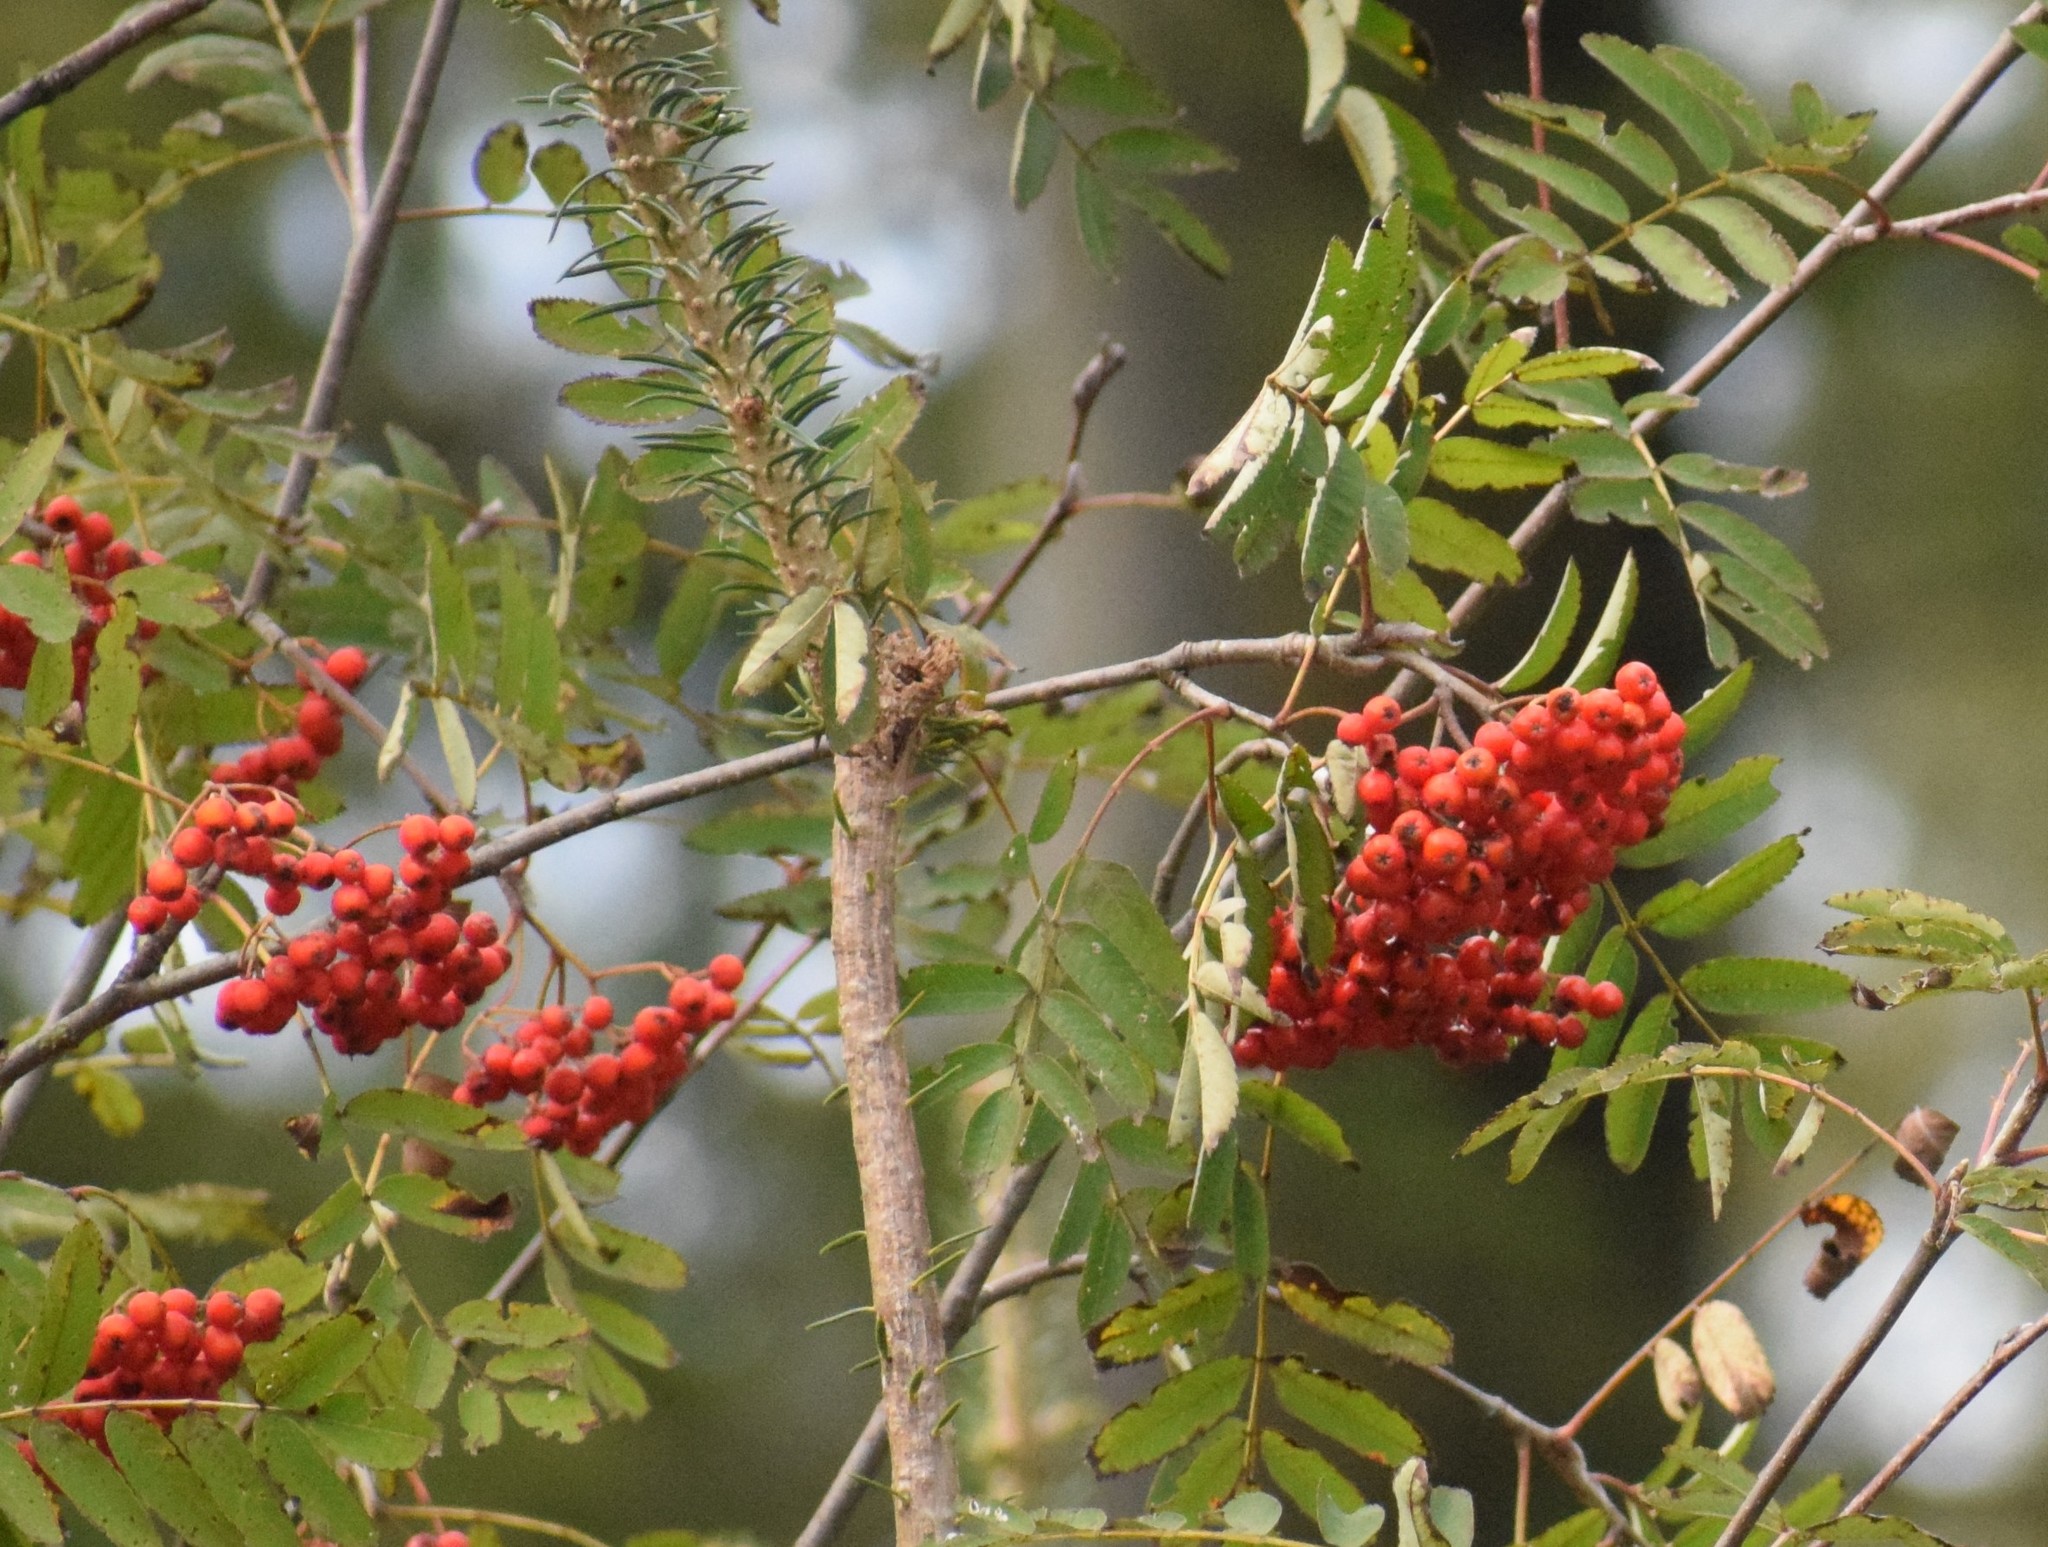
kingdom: Plantae
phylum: Tracheophyta
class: Magnoliopsida
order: Rosales
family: Rosaceae
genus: Sorbus
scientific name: Sorbus aucuparia
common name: Rowan
